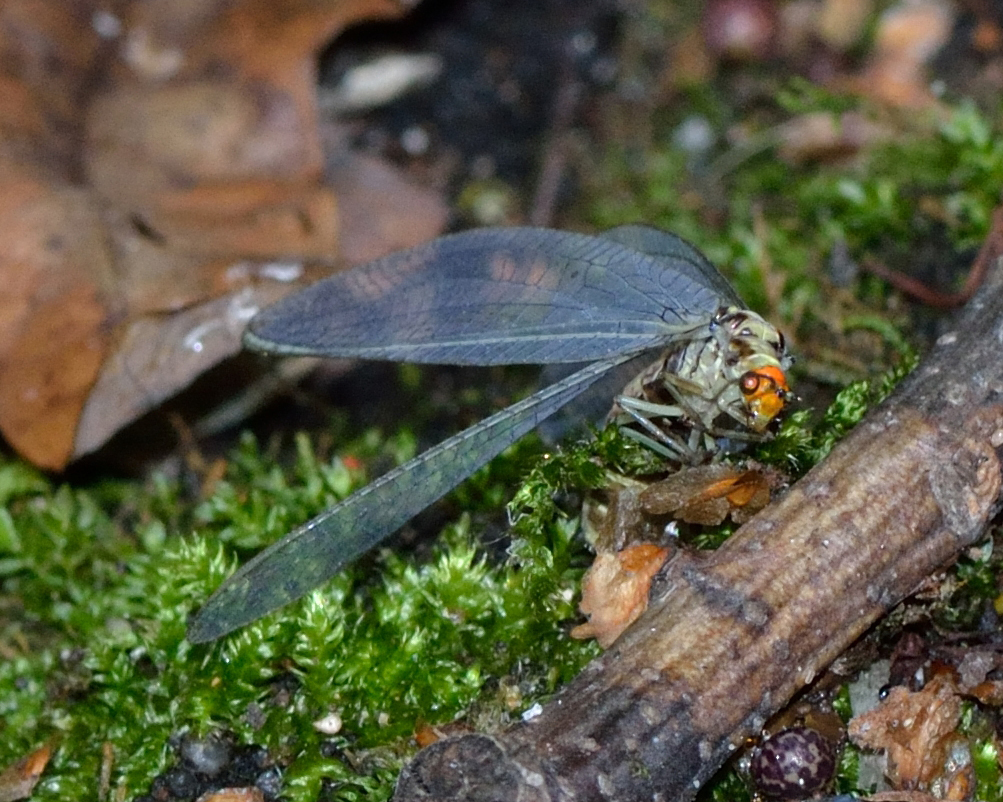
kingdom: Animalia
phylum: Arthropoda
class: Insecta
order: Neuroptera
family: Chrysopidae
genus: Nothochrysa
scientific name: Nothochrysa fulviceps
